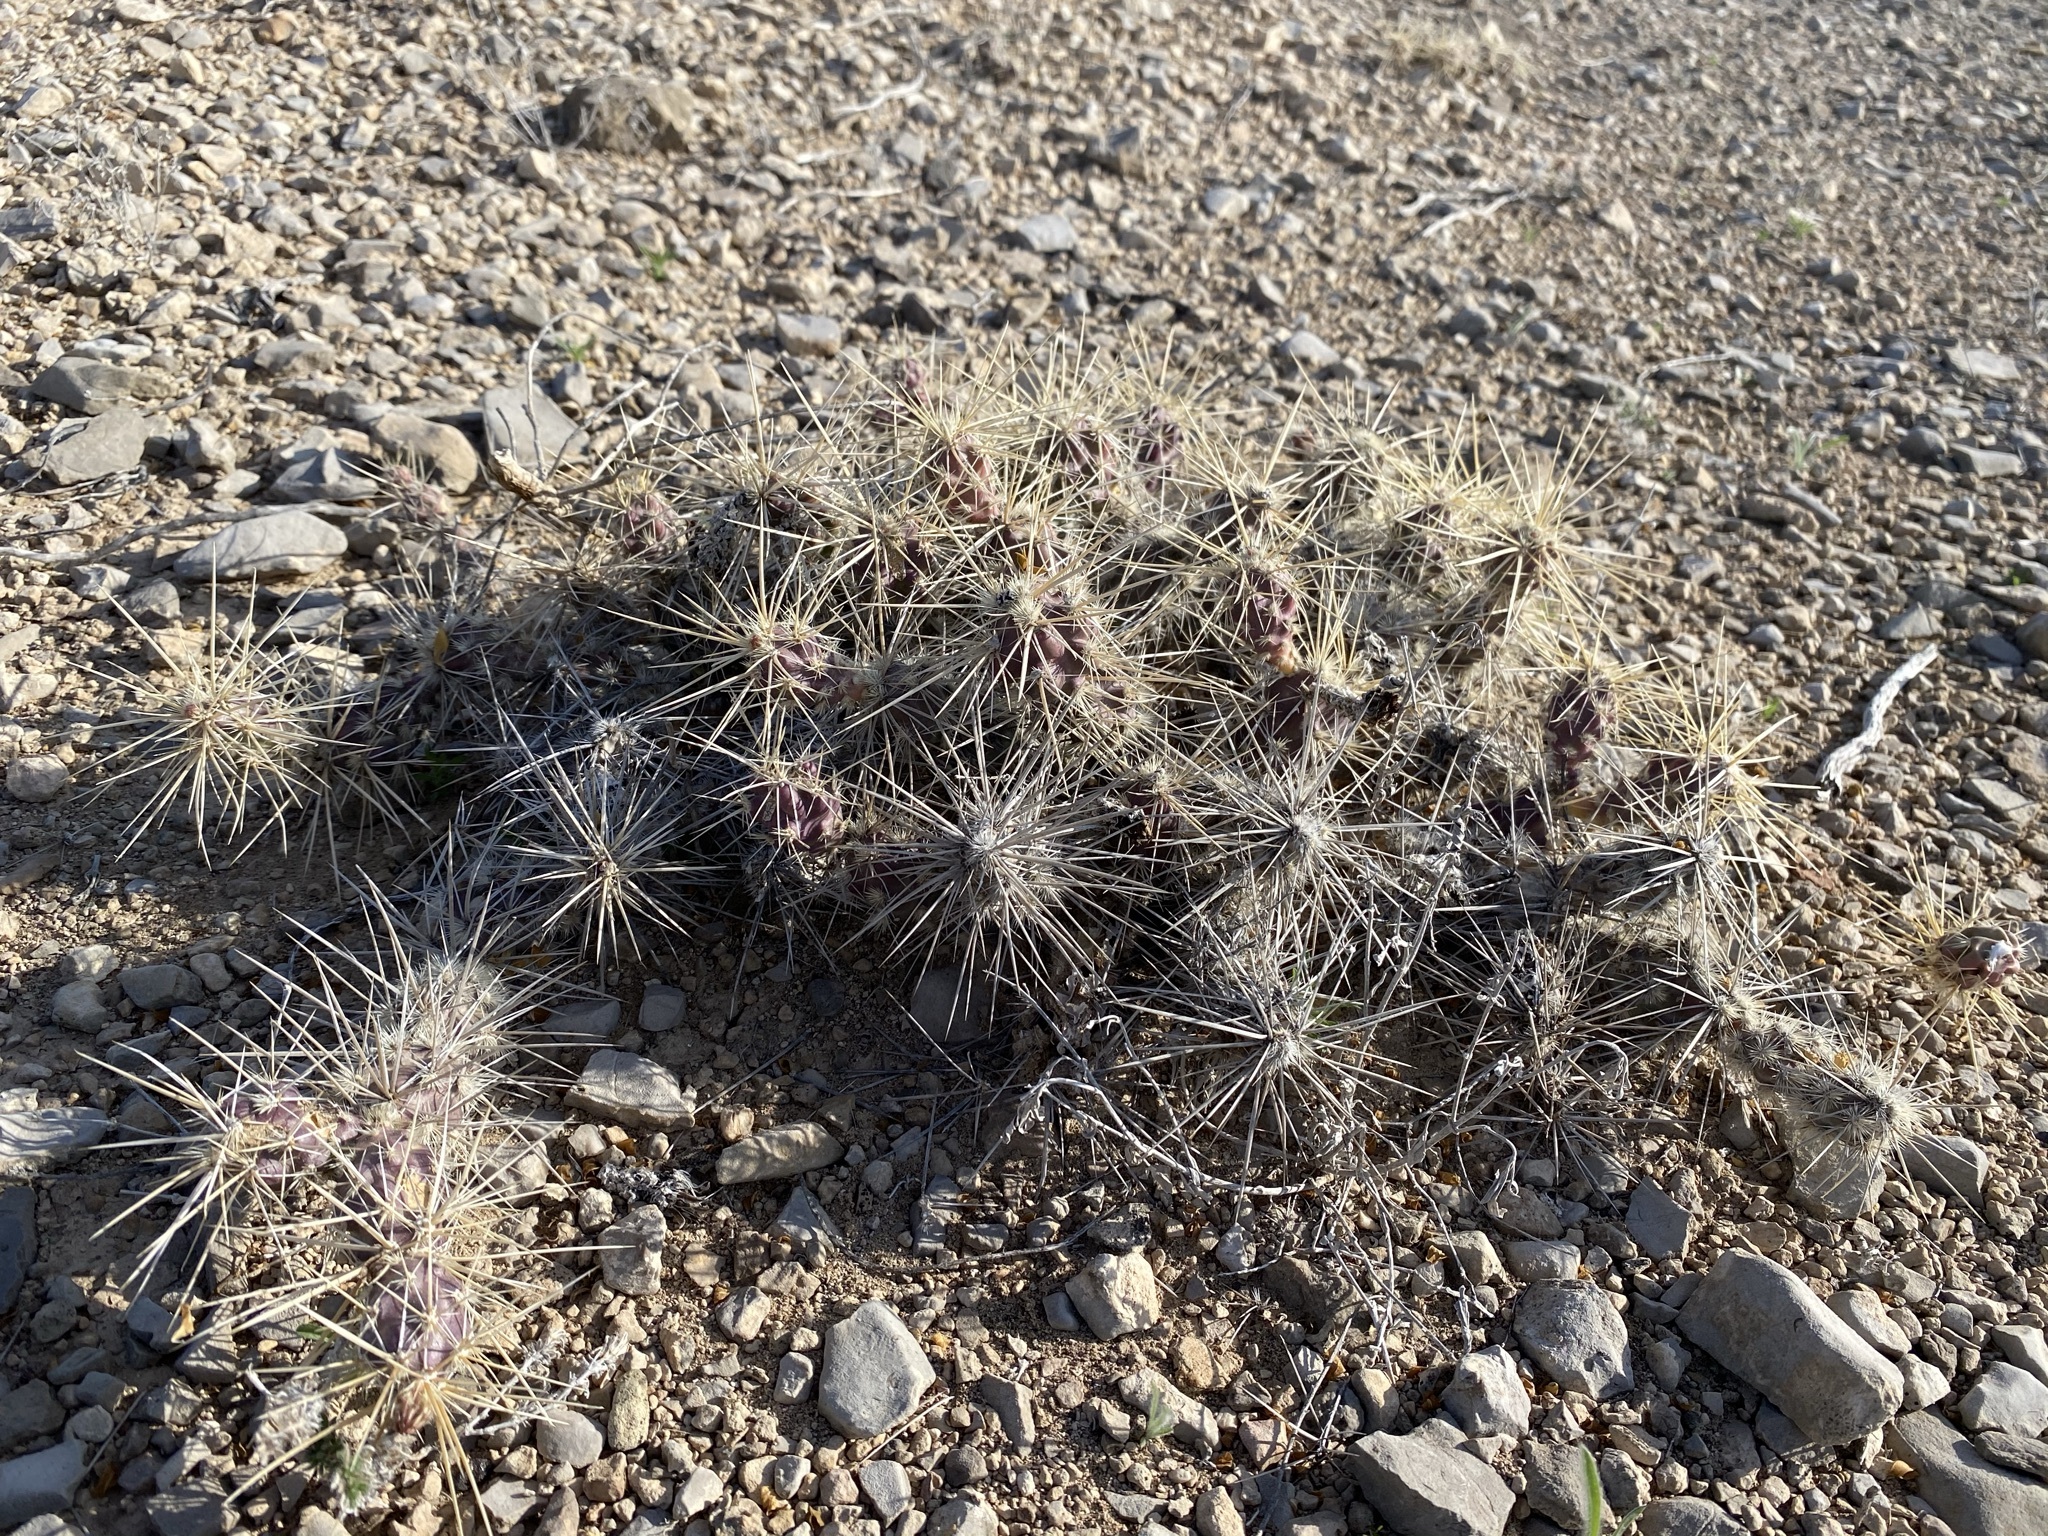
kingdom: Plantae
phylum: Tracheophyta
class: Magnoliopsida
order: Caryophyllales
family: Cactaceae
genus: Grusonia
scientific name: Grusonia grahamii
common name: Graham's club cactus
